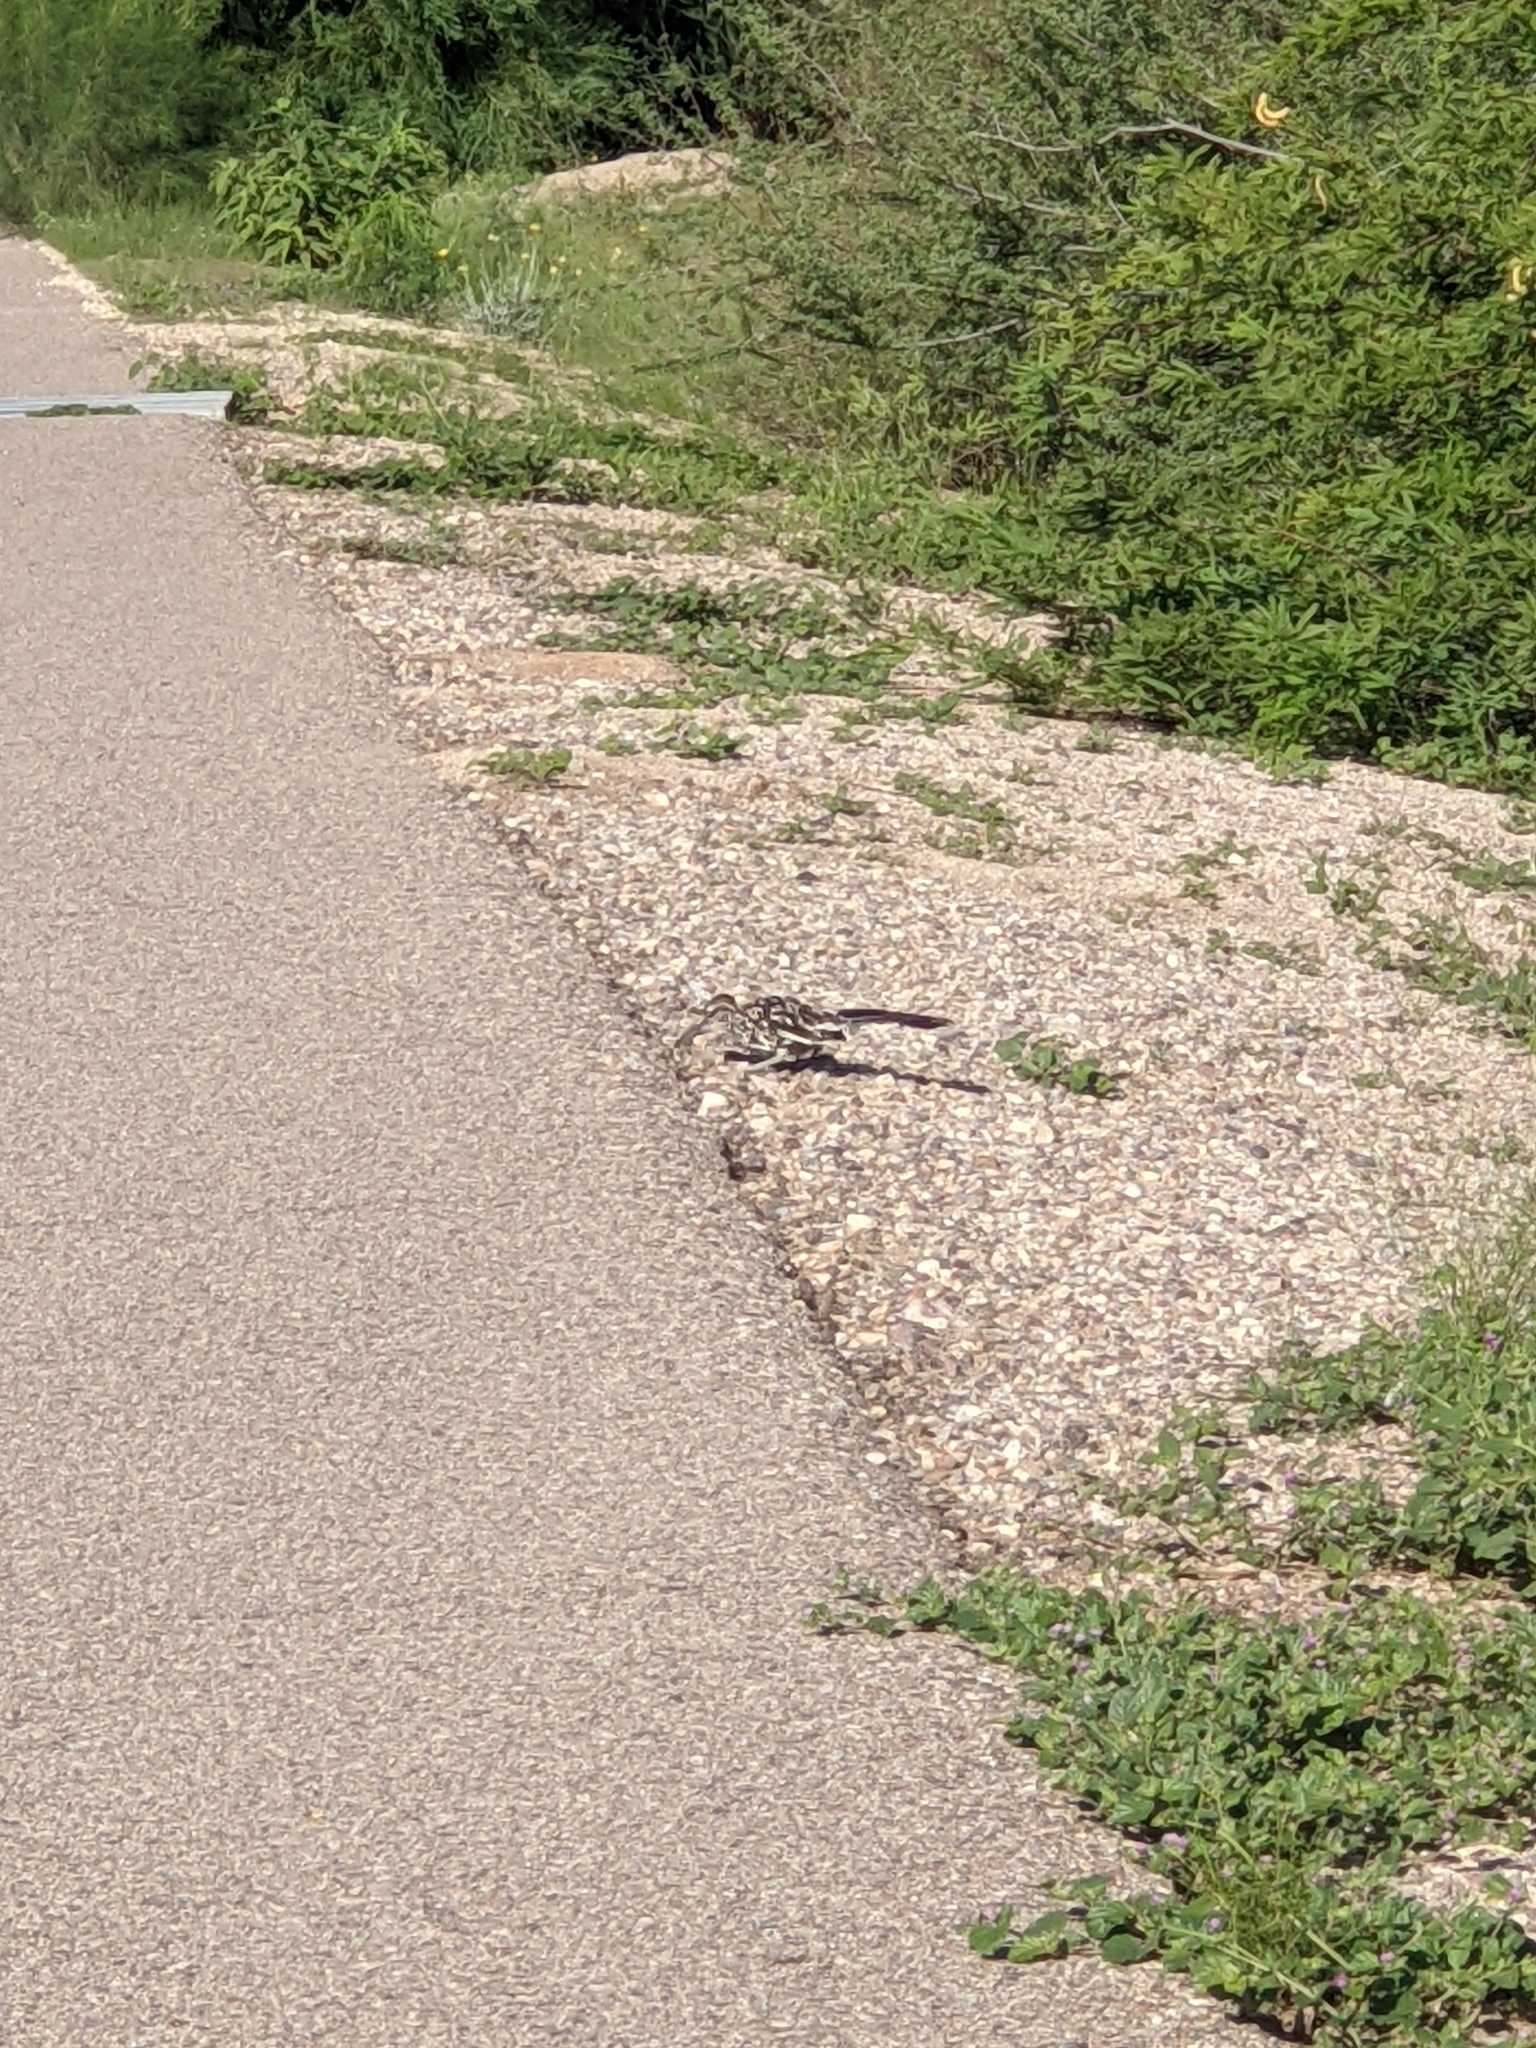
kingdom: Animalia
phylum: Chordata
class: Aves
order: Cuculiformes
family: Cuculidae
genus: Geococcyx
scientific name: Geococcyx californianus
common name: Greater roadrunner
